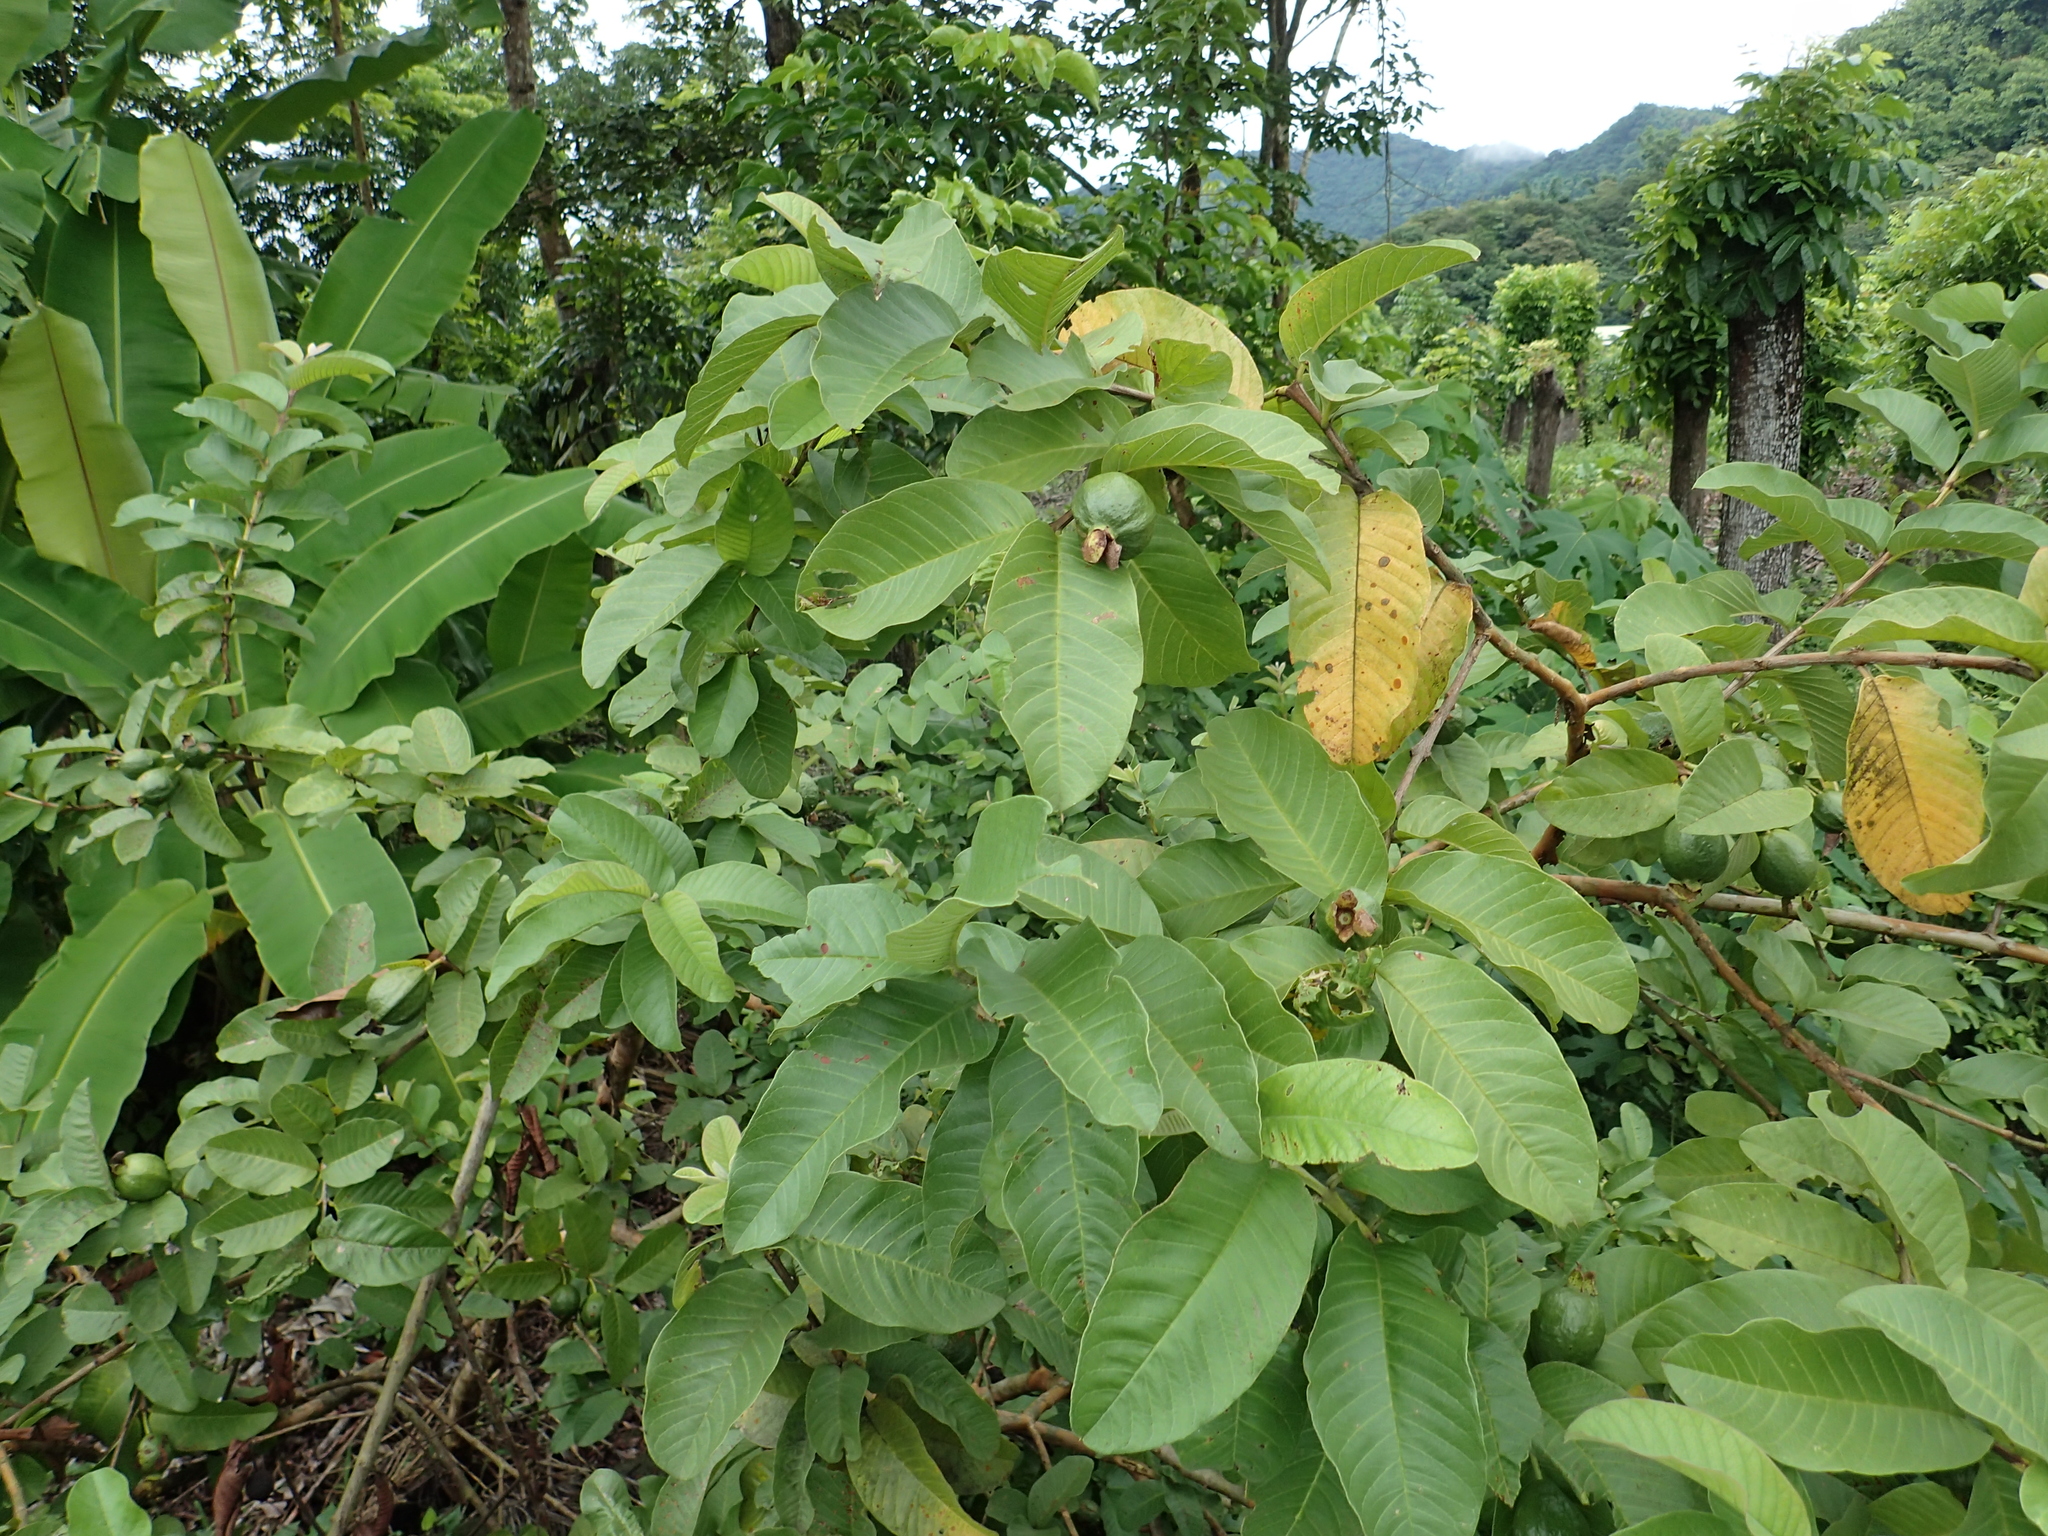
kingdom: Plantae
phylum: Tracheophyta
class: Magnoliopsida
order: Myrtales
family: Myrtaceae
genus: Psidium
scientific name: Psidium guajava
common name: Guava
